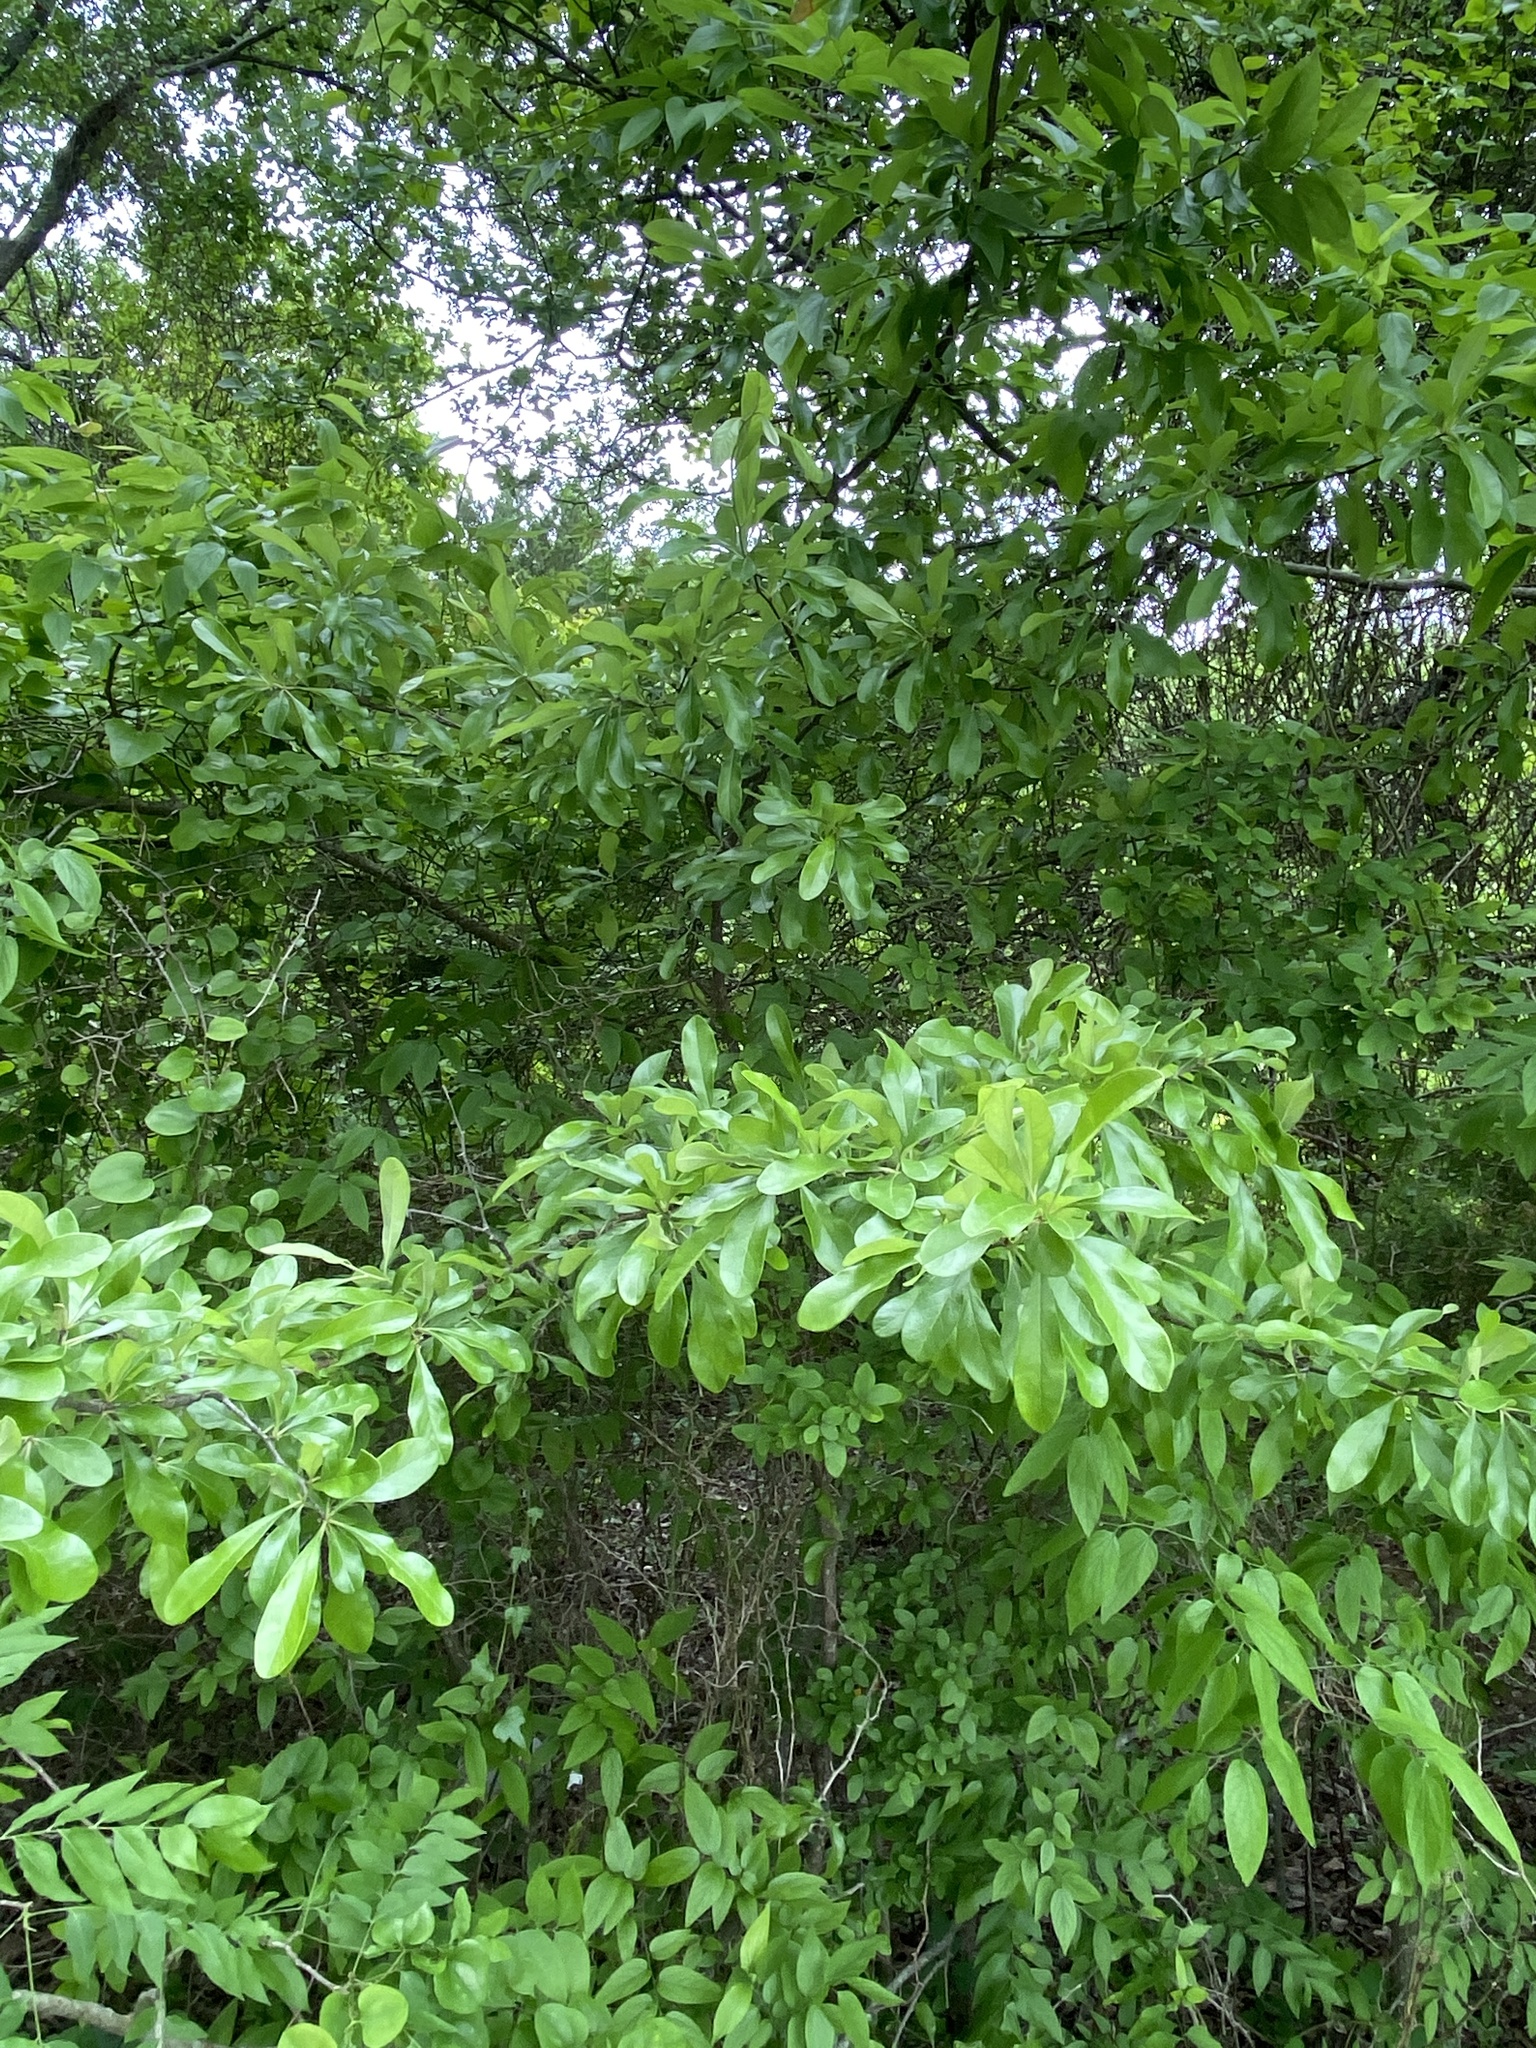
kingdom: Plantae
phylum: Tracheophyta
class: Magnoliopsida
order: Ericales
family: Sapotaceae
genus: Sideroxylon
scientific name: Sideroxylon lanuginosum
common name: Chittamwood
